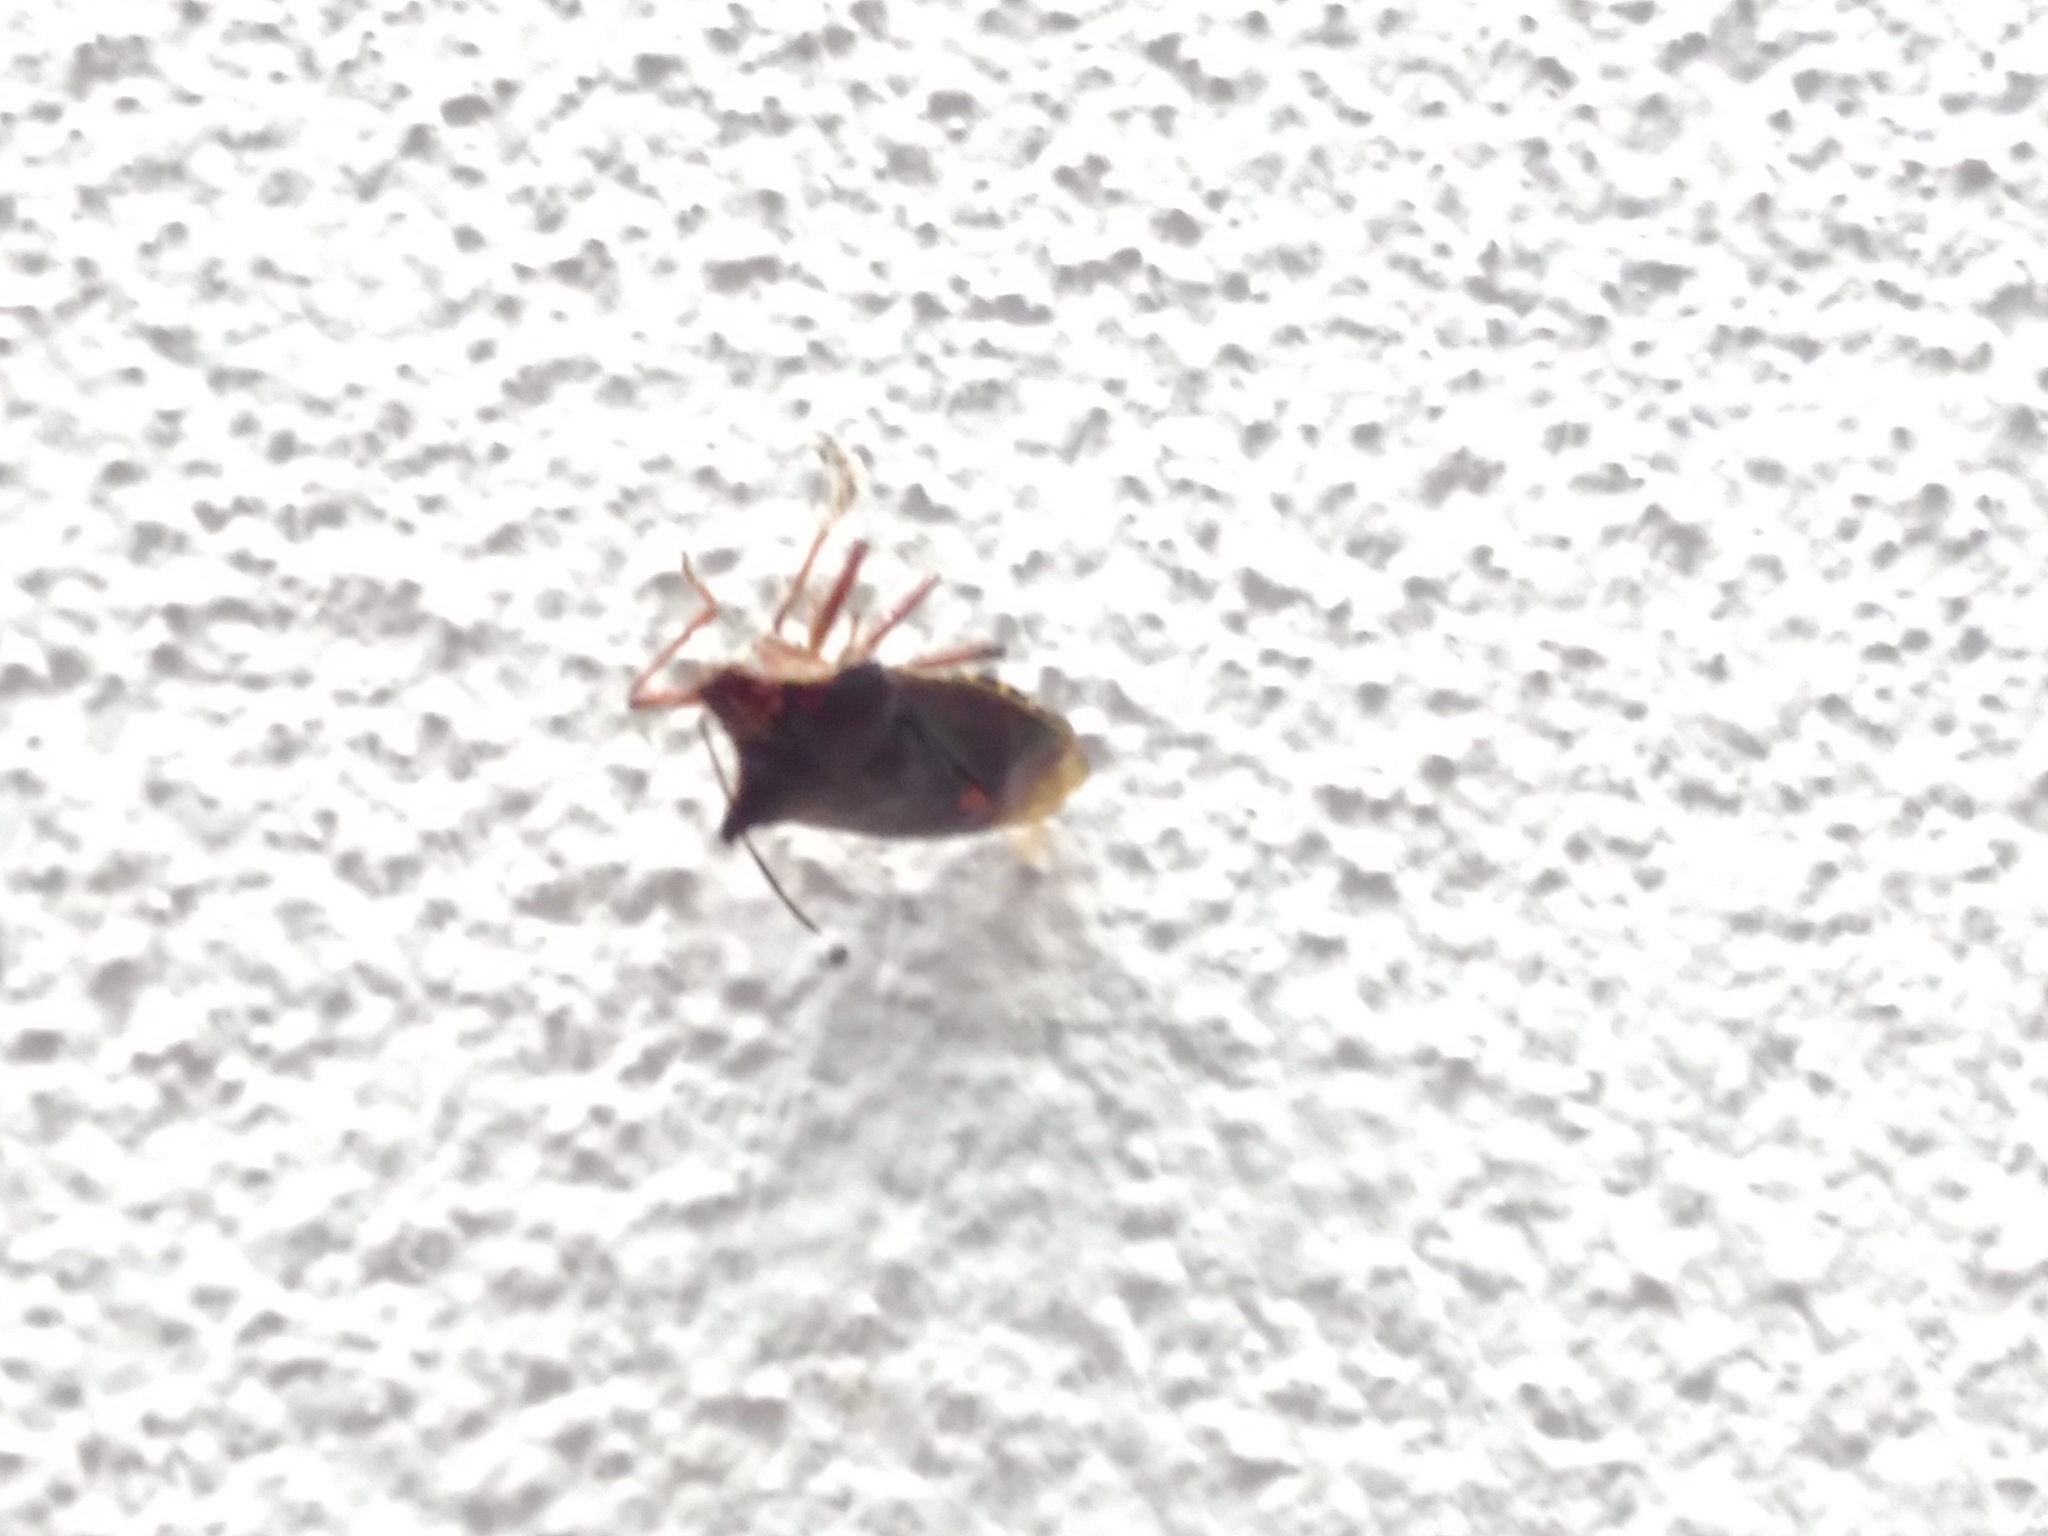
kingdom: Animalia
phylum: Arthropoda
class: Insecta
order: Hemiptera
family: Pentatomidae
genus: Pentatoma
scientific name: Pentatoma rufipes
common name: Forest bug
